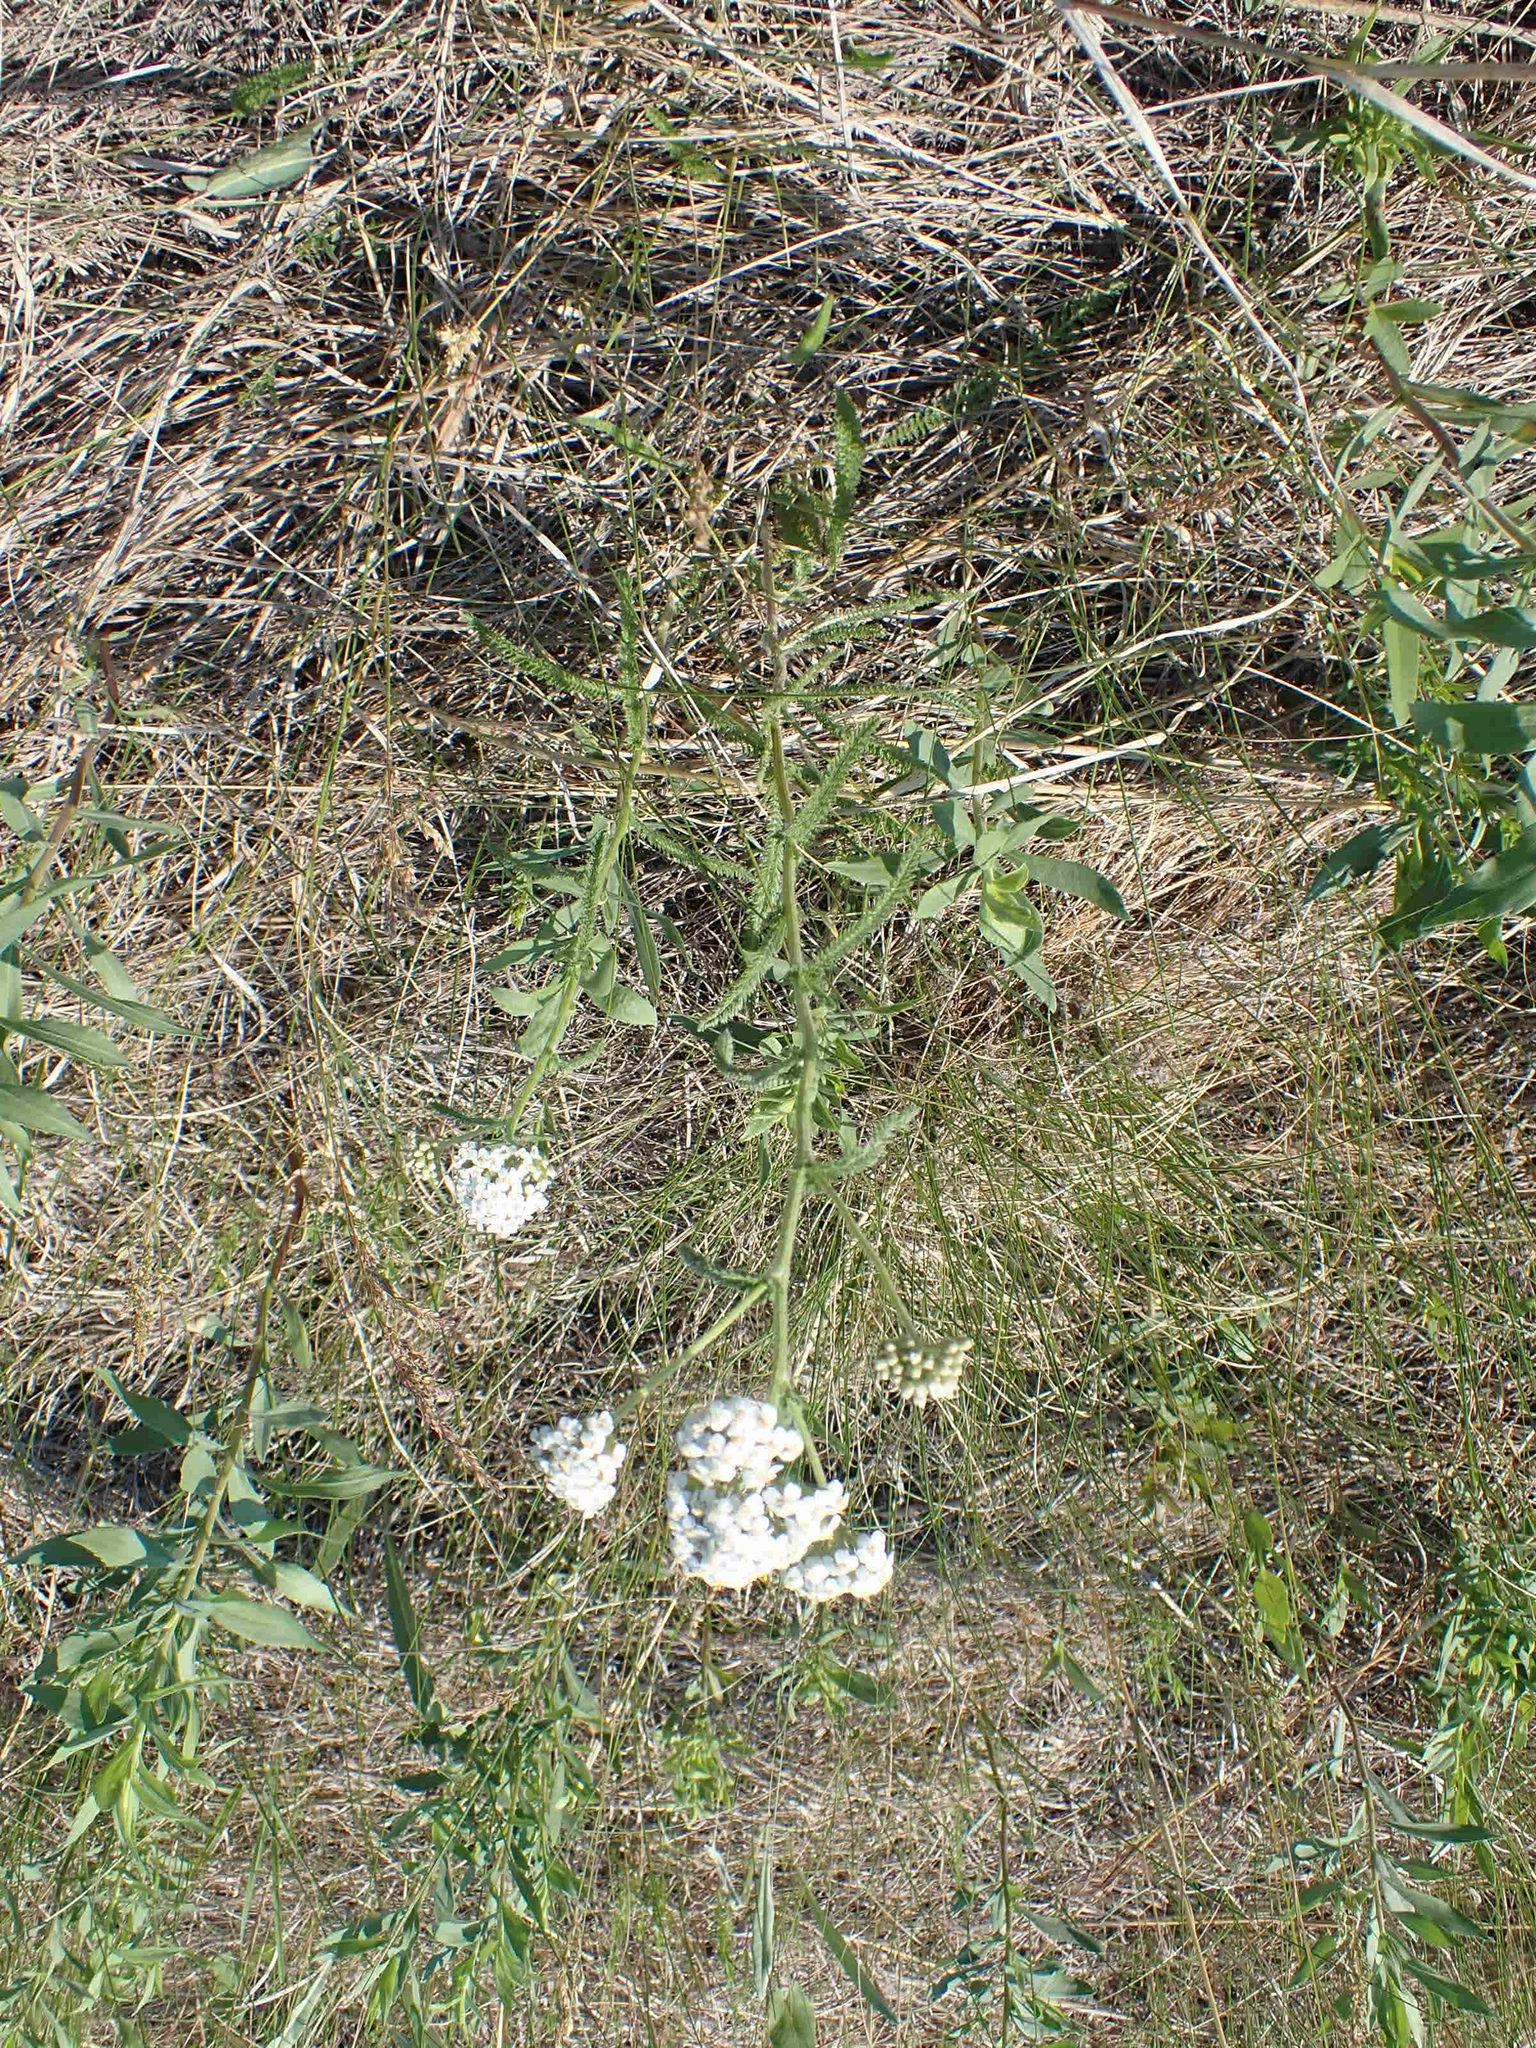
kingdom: Plantae
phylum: Tracheophyta
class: Magnoliopsida
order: Asterales
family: Asteraceae
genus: Achillea
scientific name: Achillea millefolium
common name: Yarrow
